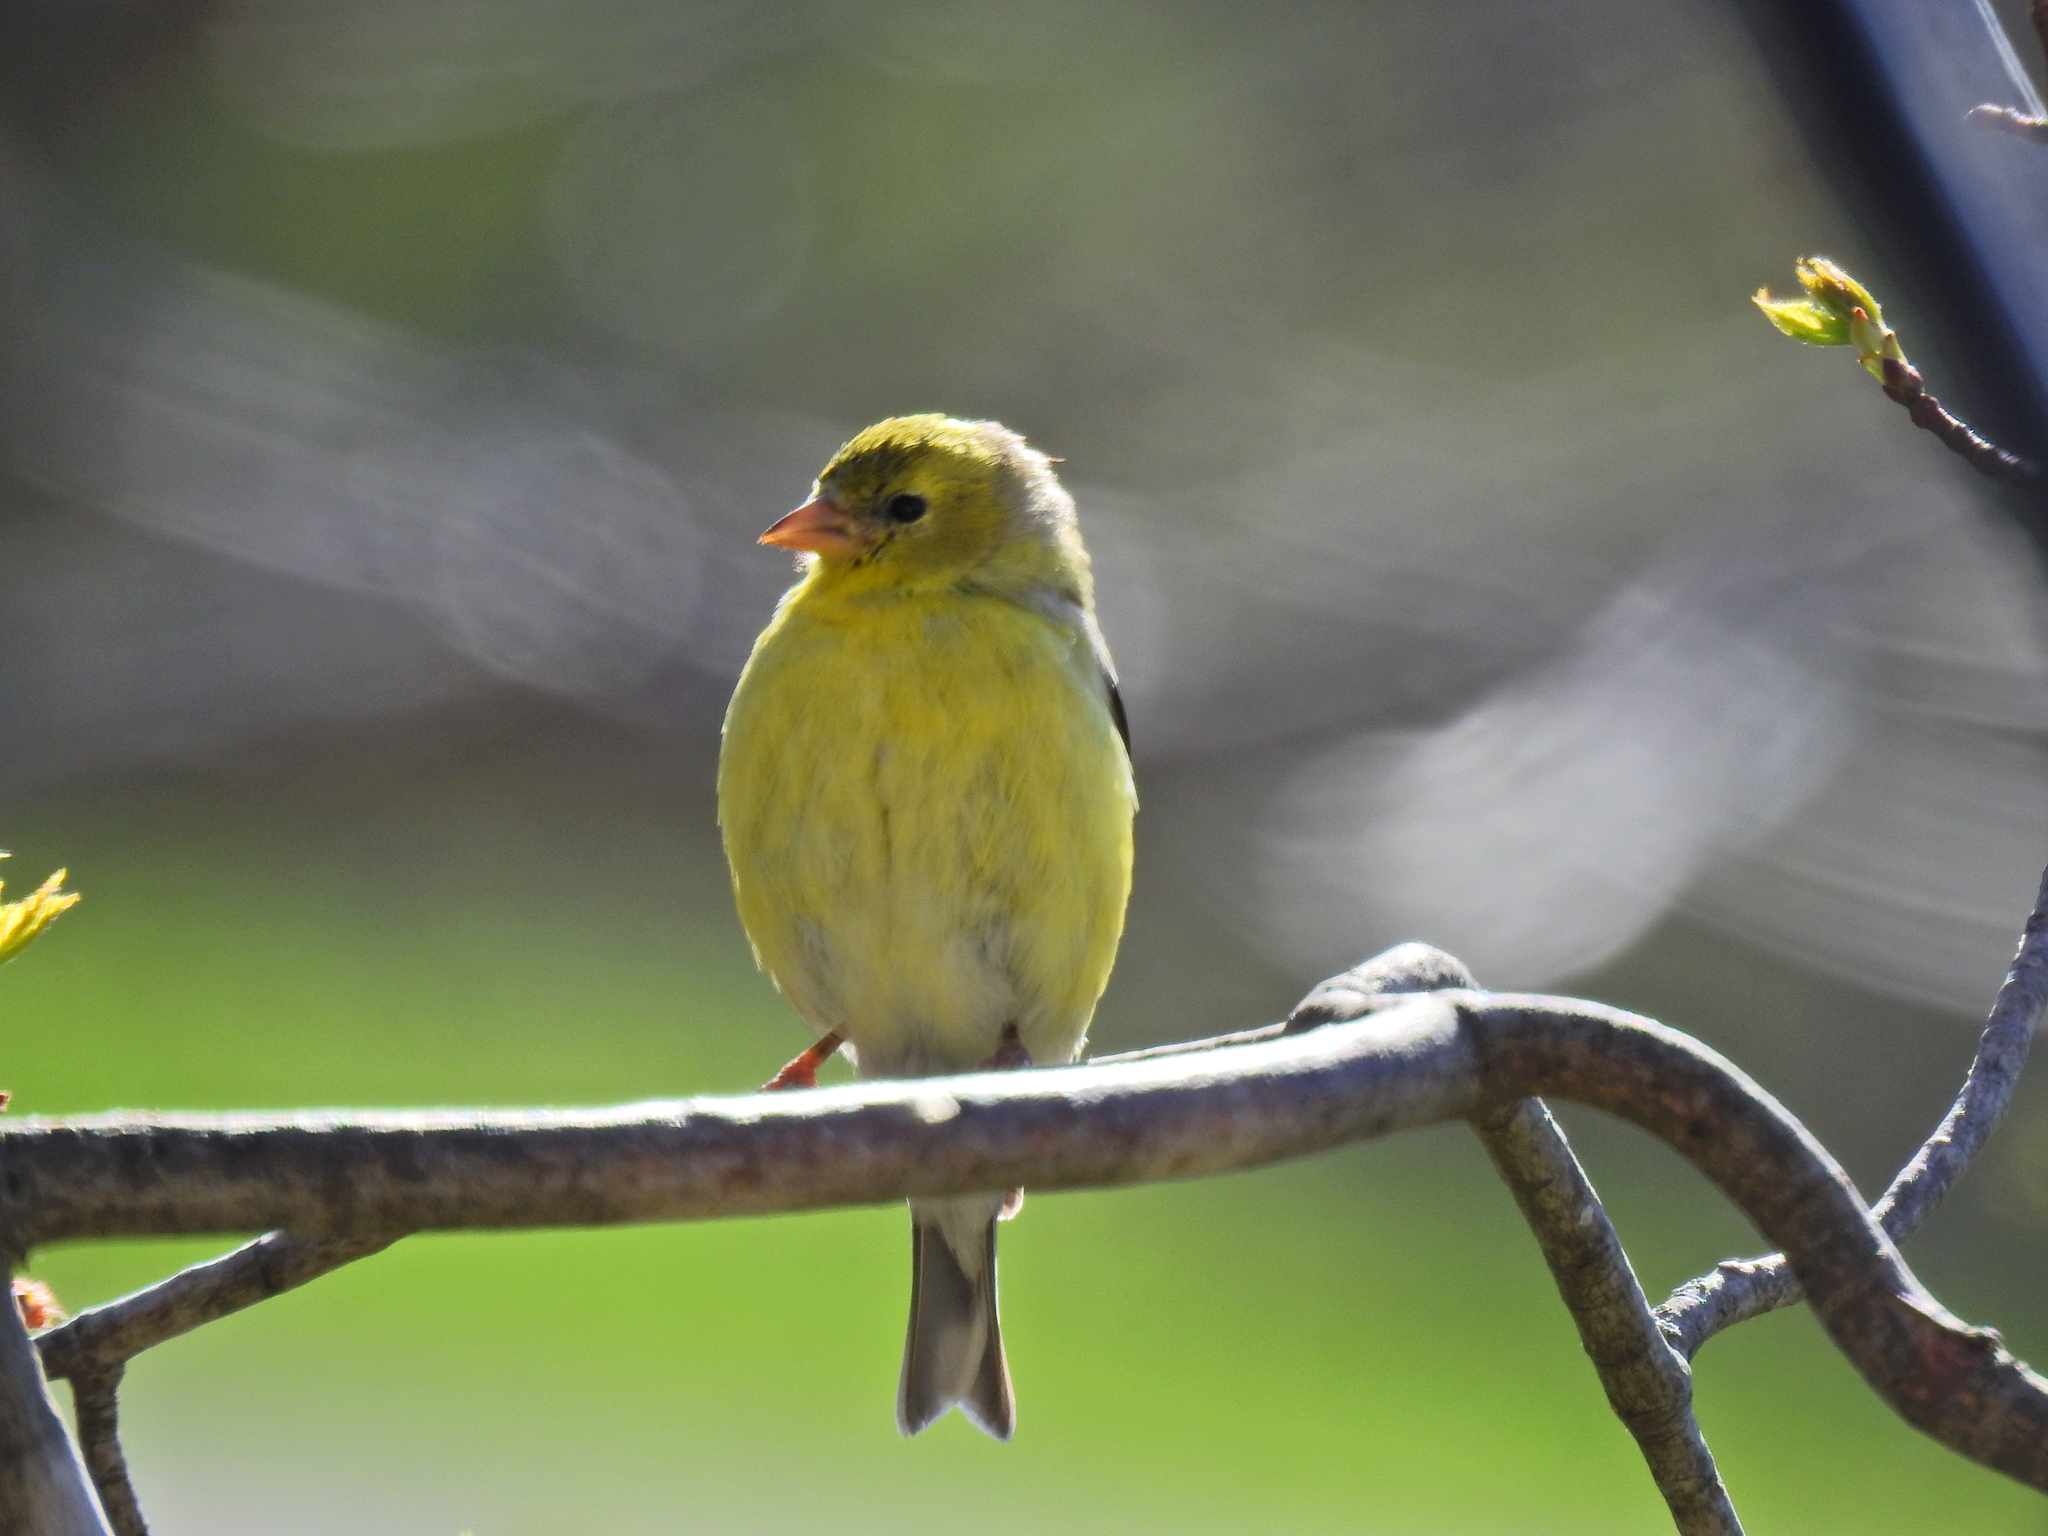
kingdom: Animalia
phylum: Chordata
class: Aves
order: Passeriformes
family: Fringillidae
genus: Spinus
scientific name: Spinus tristis
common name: American goldfinch
